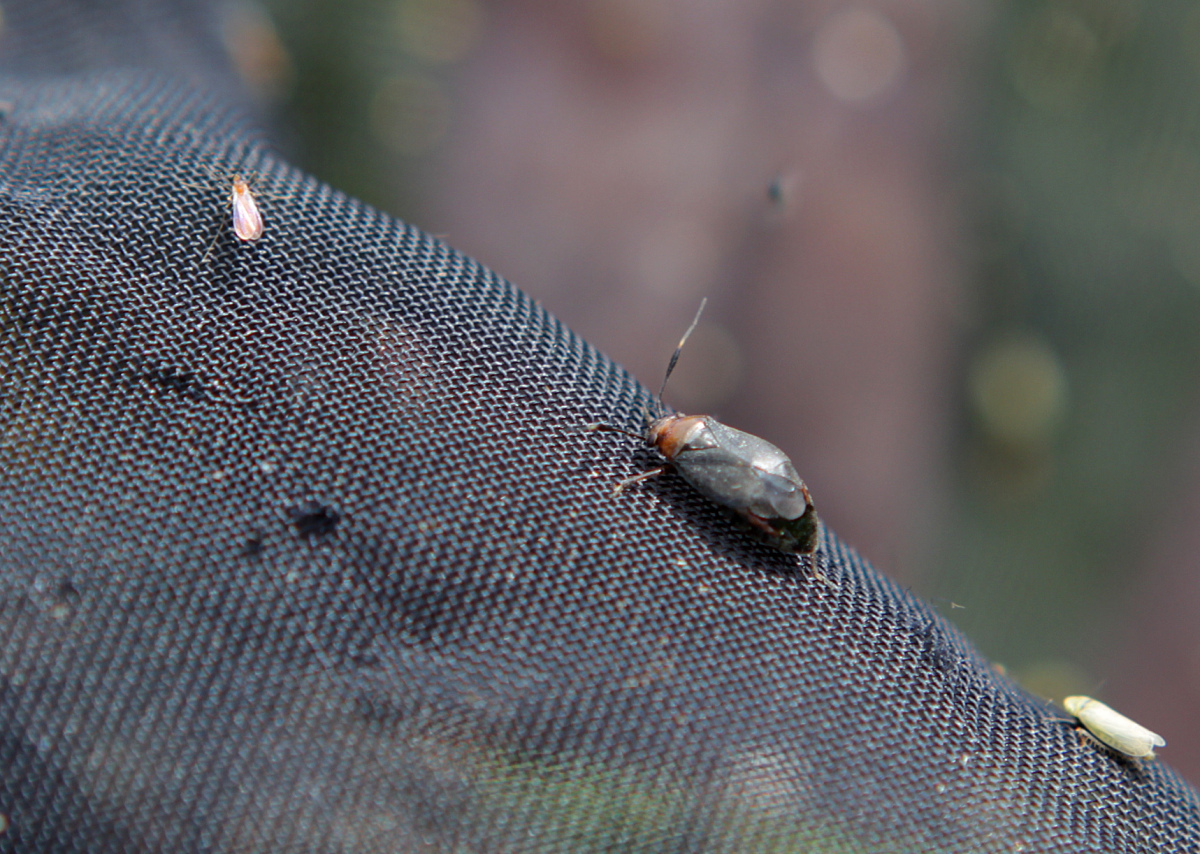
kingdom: Animalia
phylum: Arthropoda
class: Insecta
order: Hemiptera
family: Miridae
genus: Capsus
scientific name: Capsus ater
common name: Black plant bug
